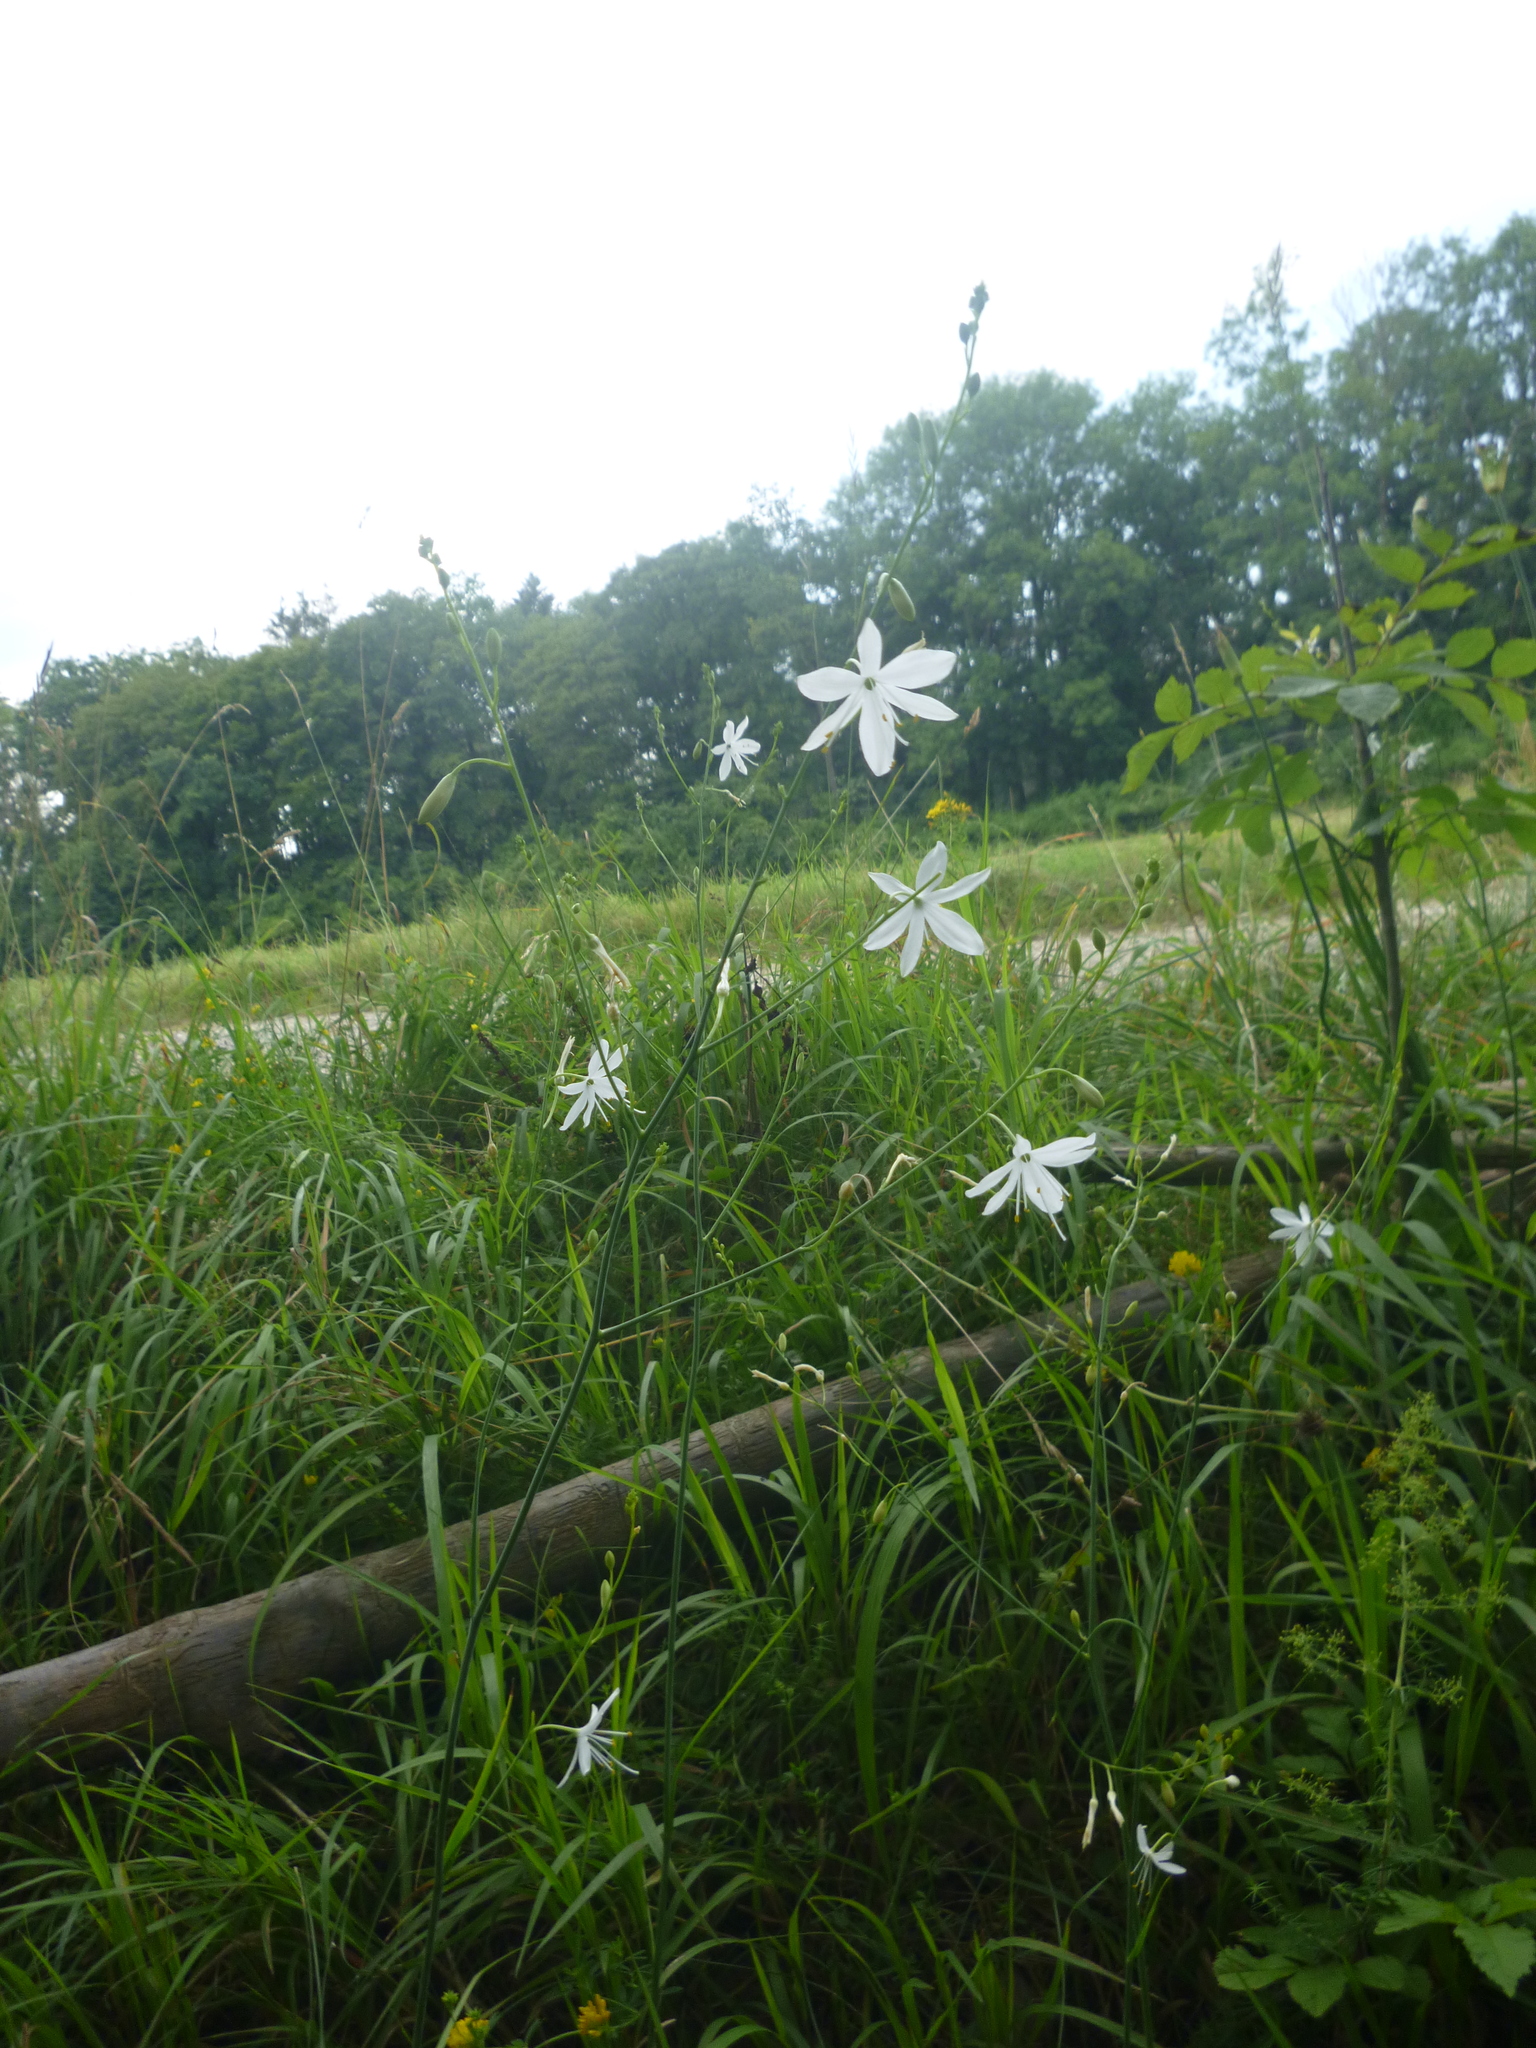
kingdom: Plantae
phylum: Tracheophyta
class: Liliopsida
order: Asparagales
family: Asparagaceae
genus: Anthericum
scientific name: Anthericum ramosum
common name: Branched st. bernard's-lily
